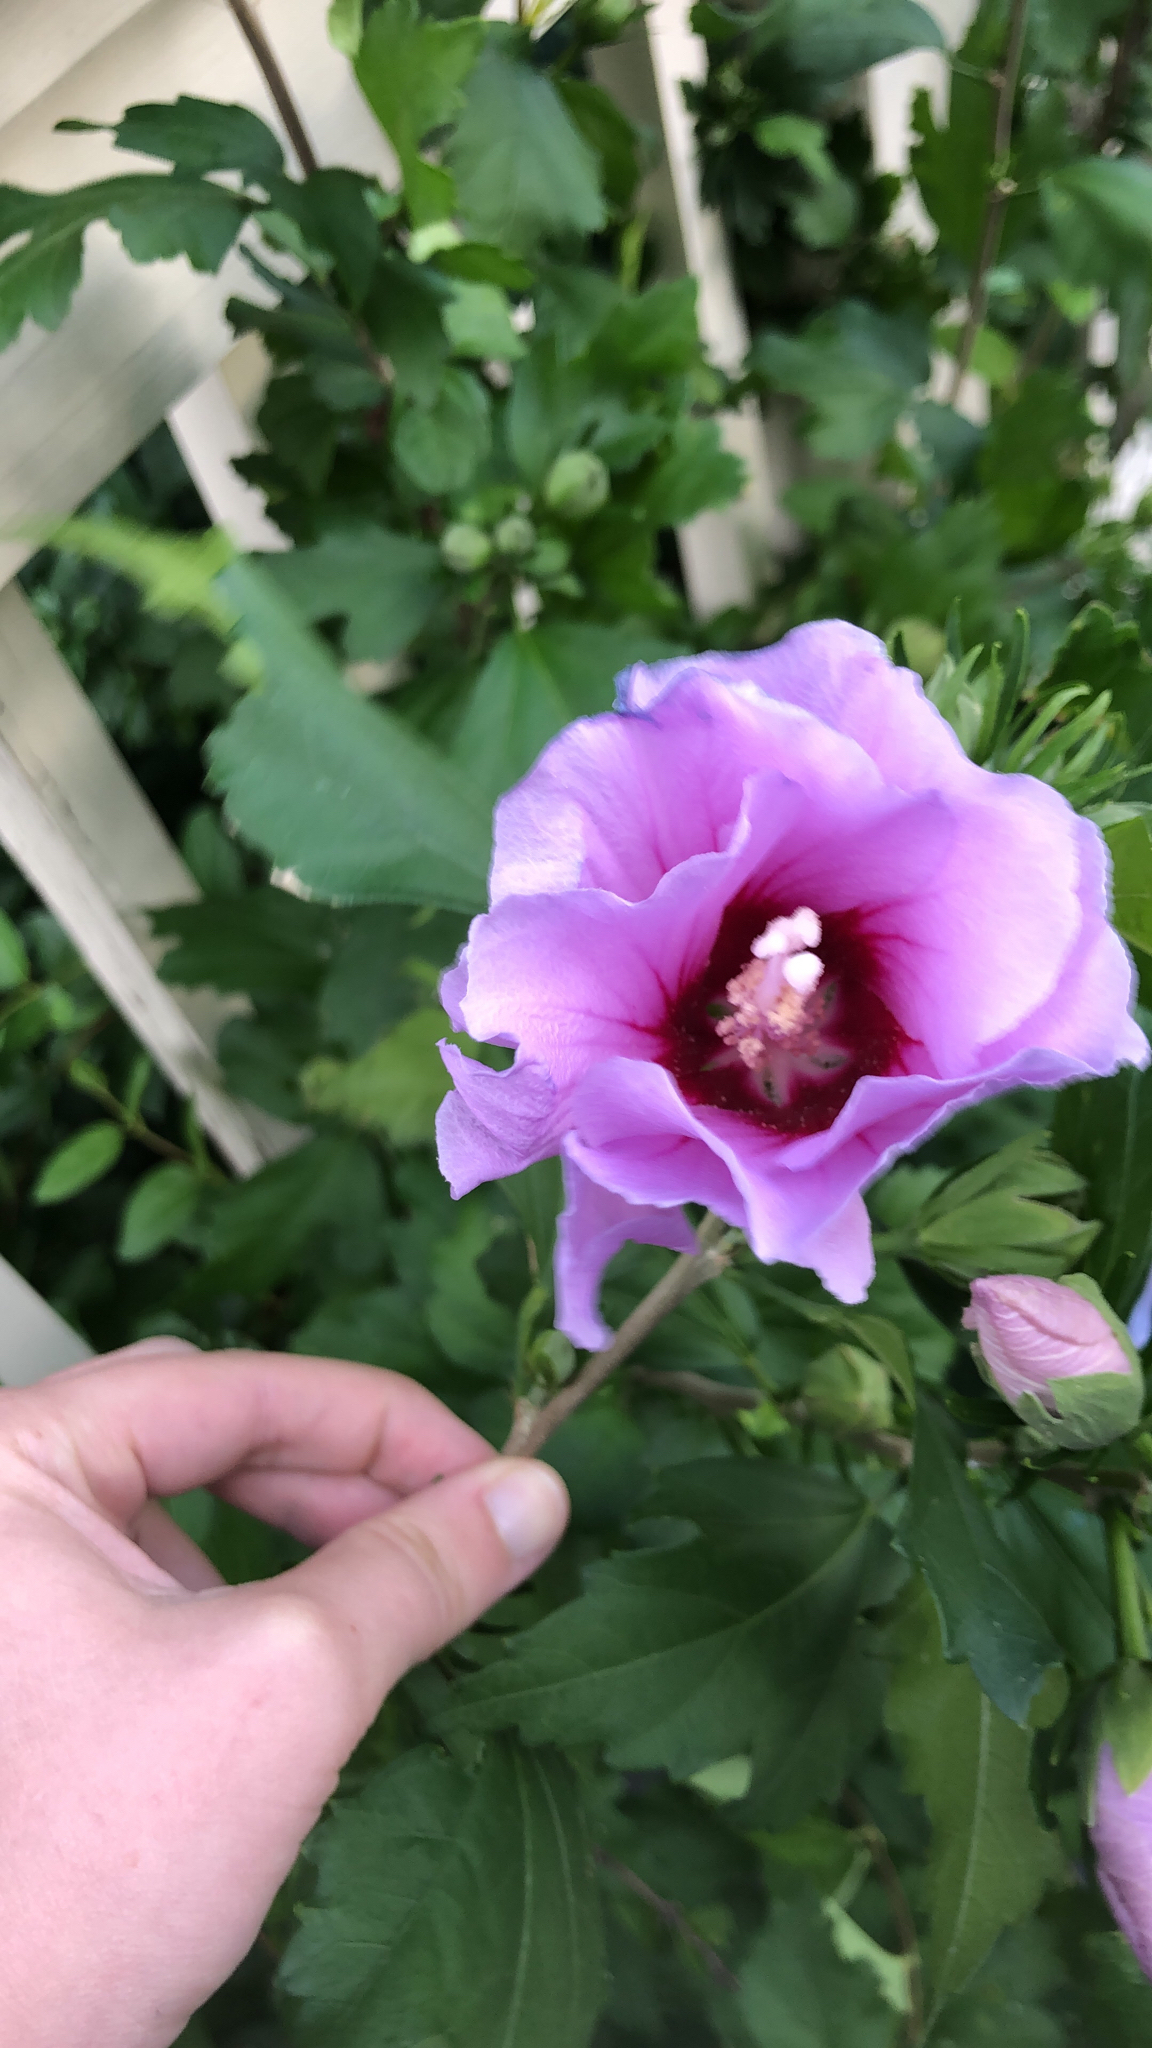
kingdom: Plantae
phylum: Tracheophyta
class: Magnoliopsida
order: Malvales
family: Malvaceae
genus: Hibiscus
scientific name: Hibiscus syriacus
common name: Syrian ketmia
